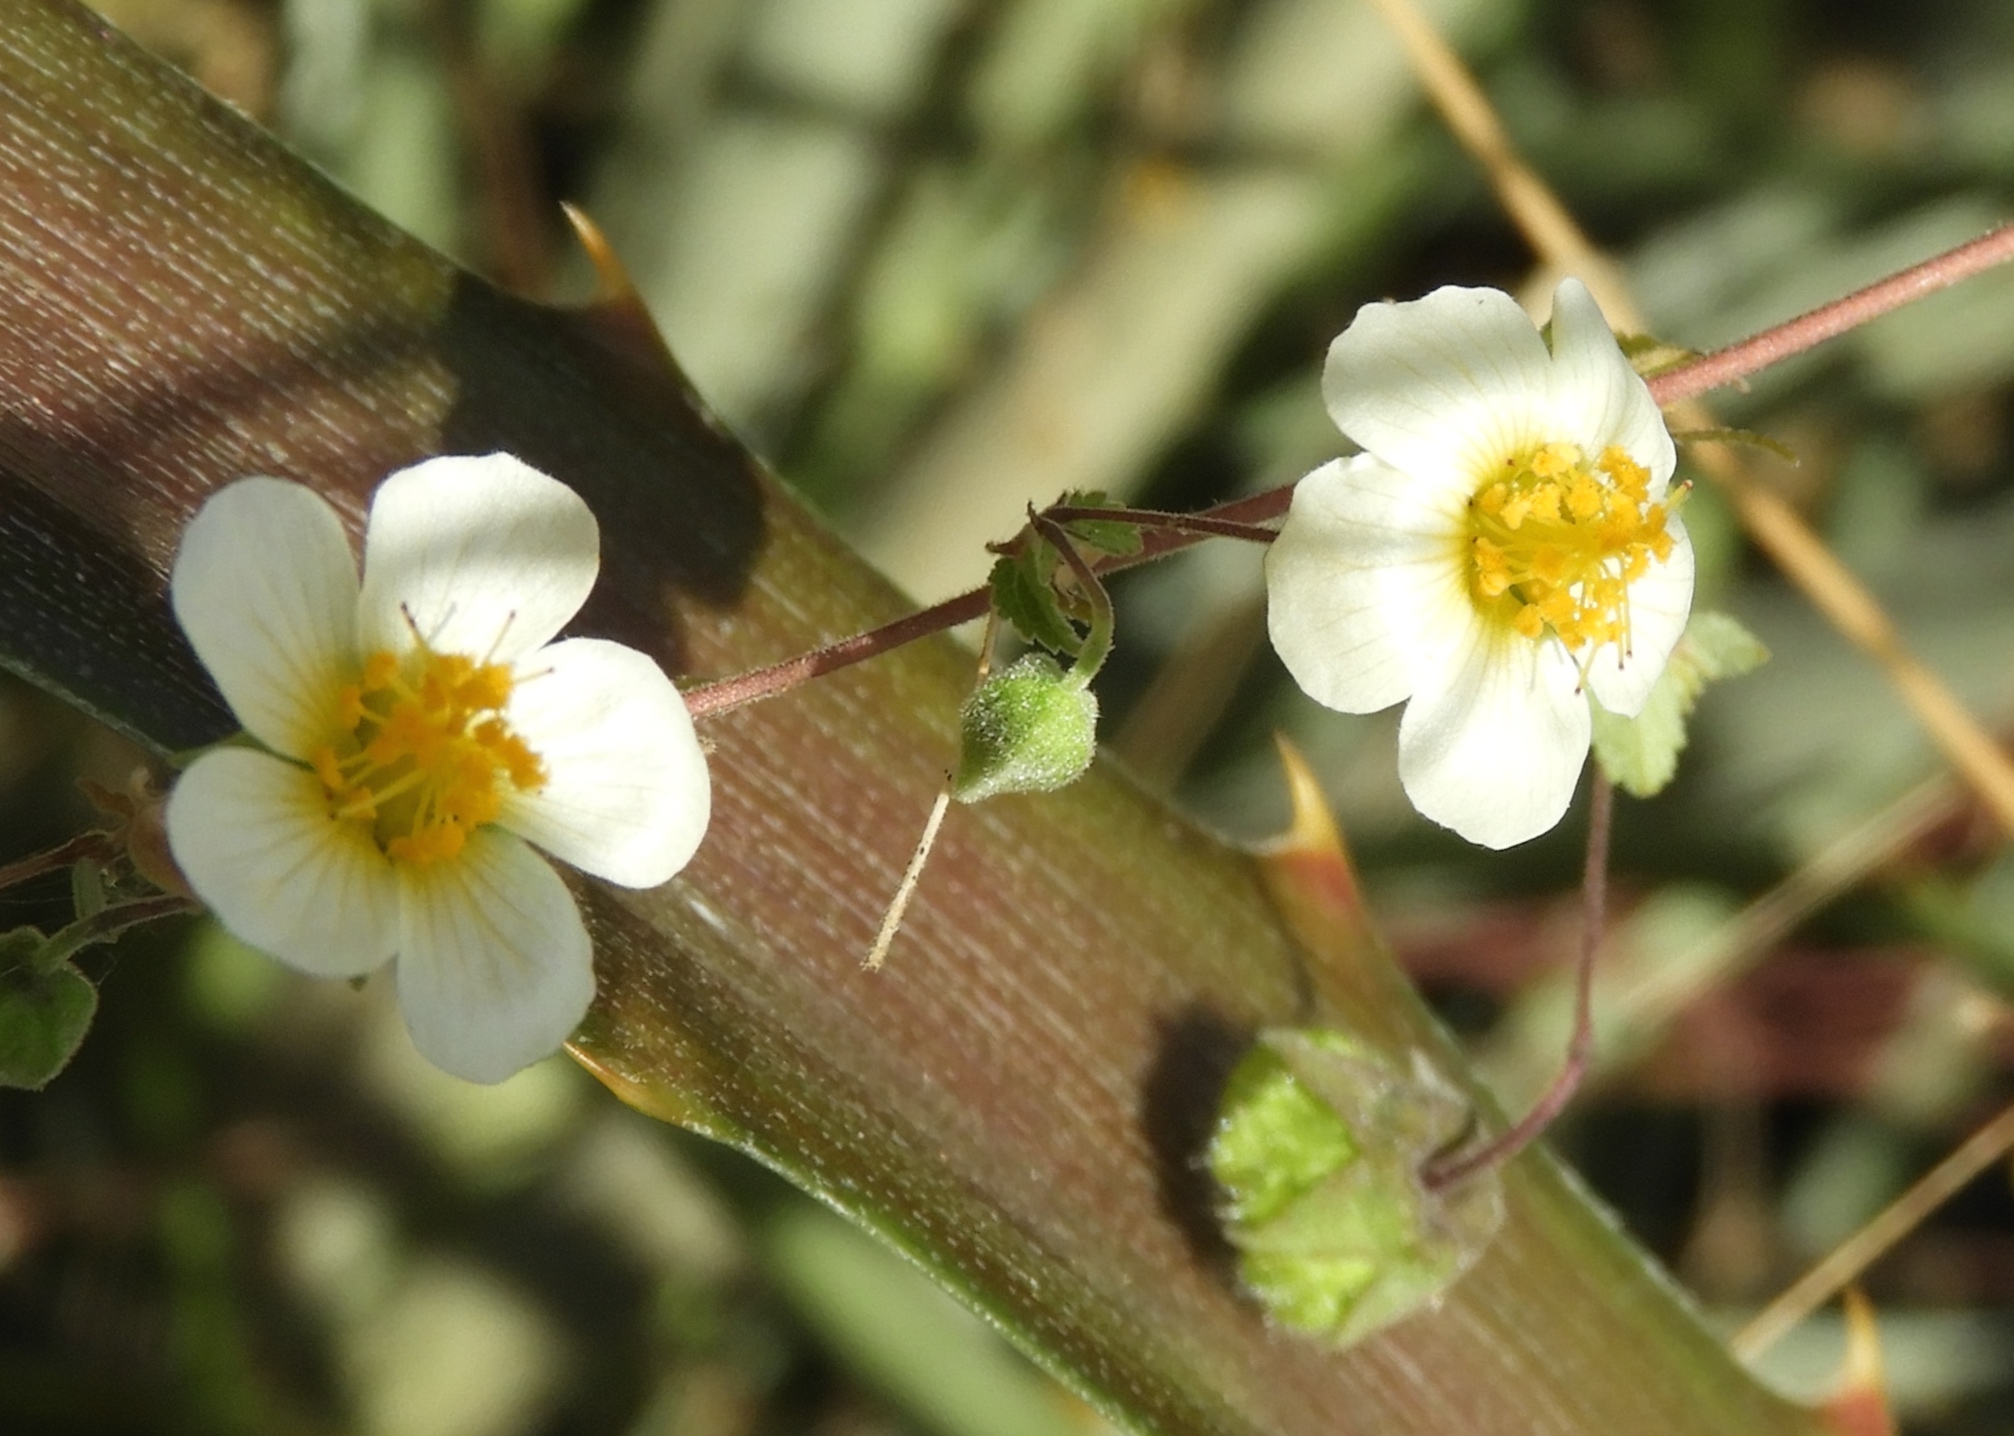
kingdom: Plantae
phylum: Tracheophyta
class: Magnoliopsida
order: Malvales
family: Malvaceae
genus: Herissantia
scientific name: Herissantia crispa
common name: Bladdermallow
